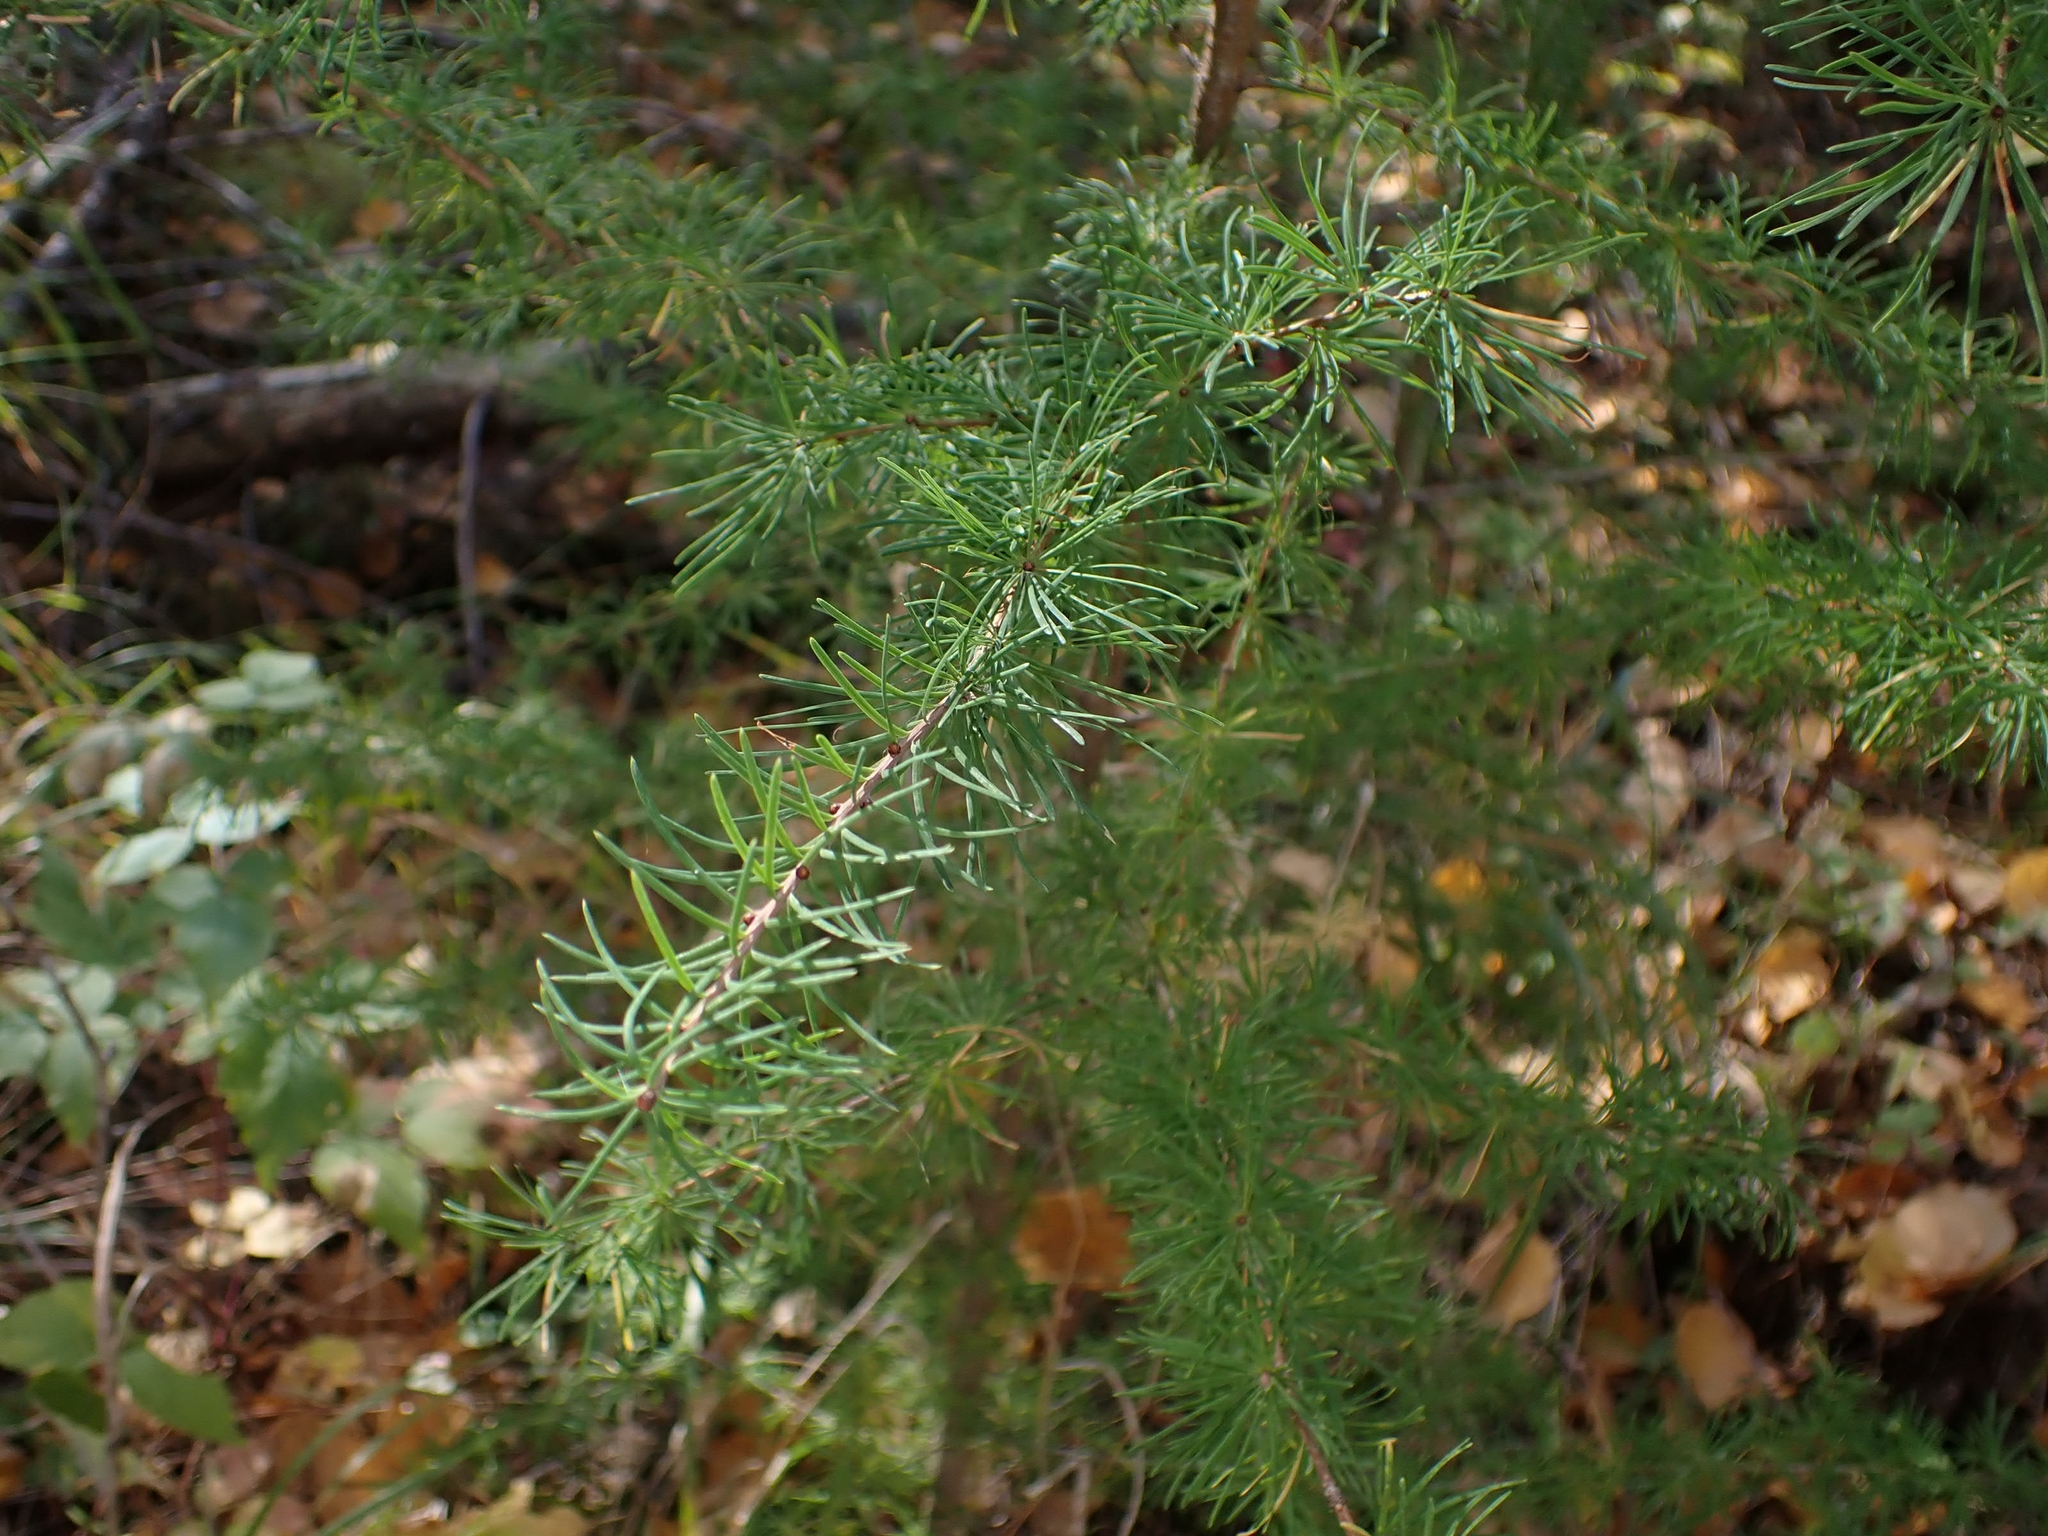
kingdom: Plantae
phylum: Tracheophyta
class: Pinopsida
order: Pinales
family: Pinaceae
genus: Larix
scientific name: Larix laricina
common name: American larch
